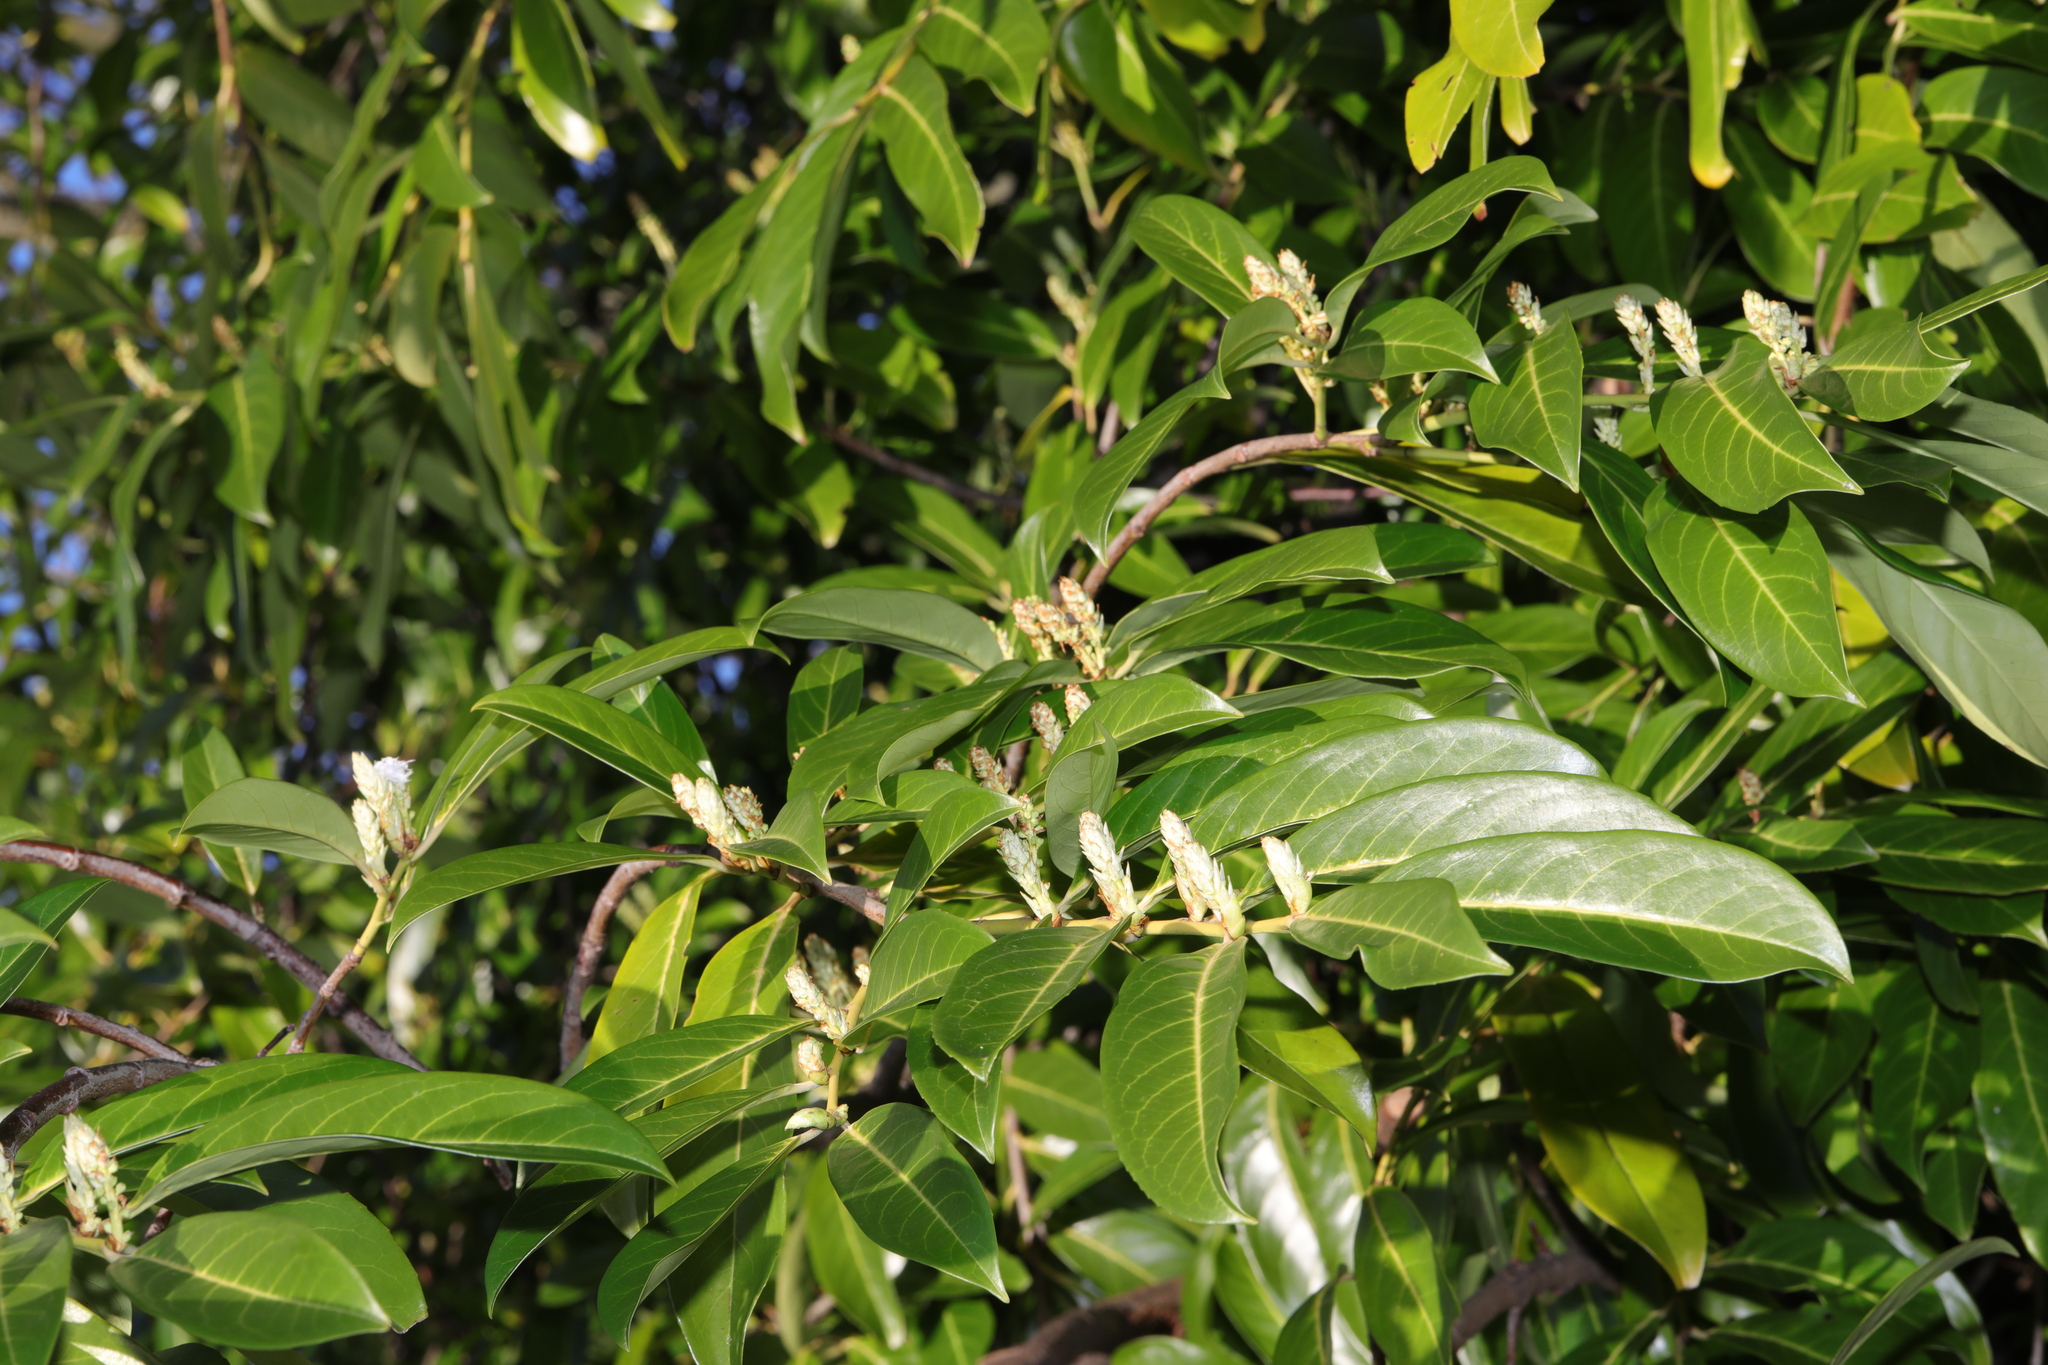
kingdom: Plantae
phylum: Tracheophyta
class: Magnoliopsida
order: Rosales
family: Rosaceae
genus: Prunus
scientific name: Prunus laurocerasus
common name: Cherry laurel
